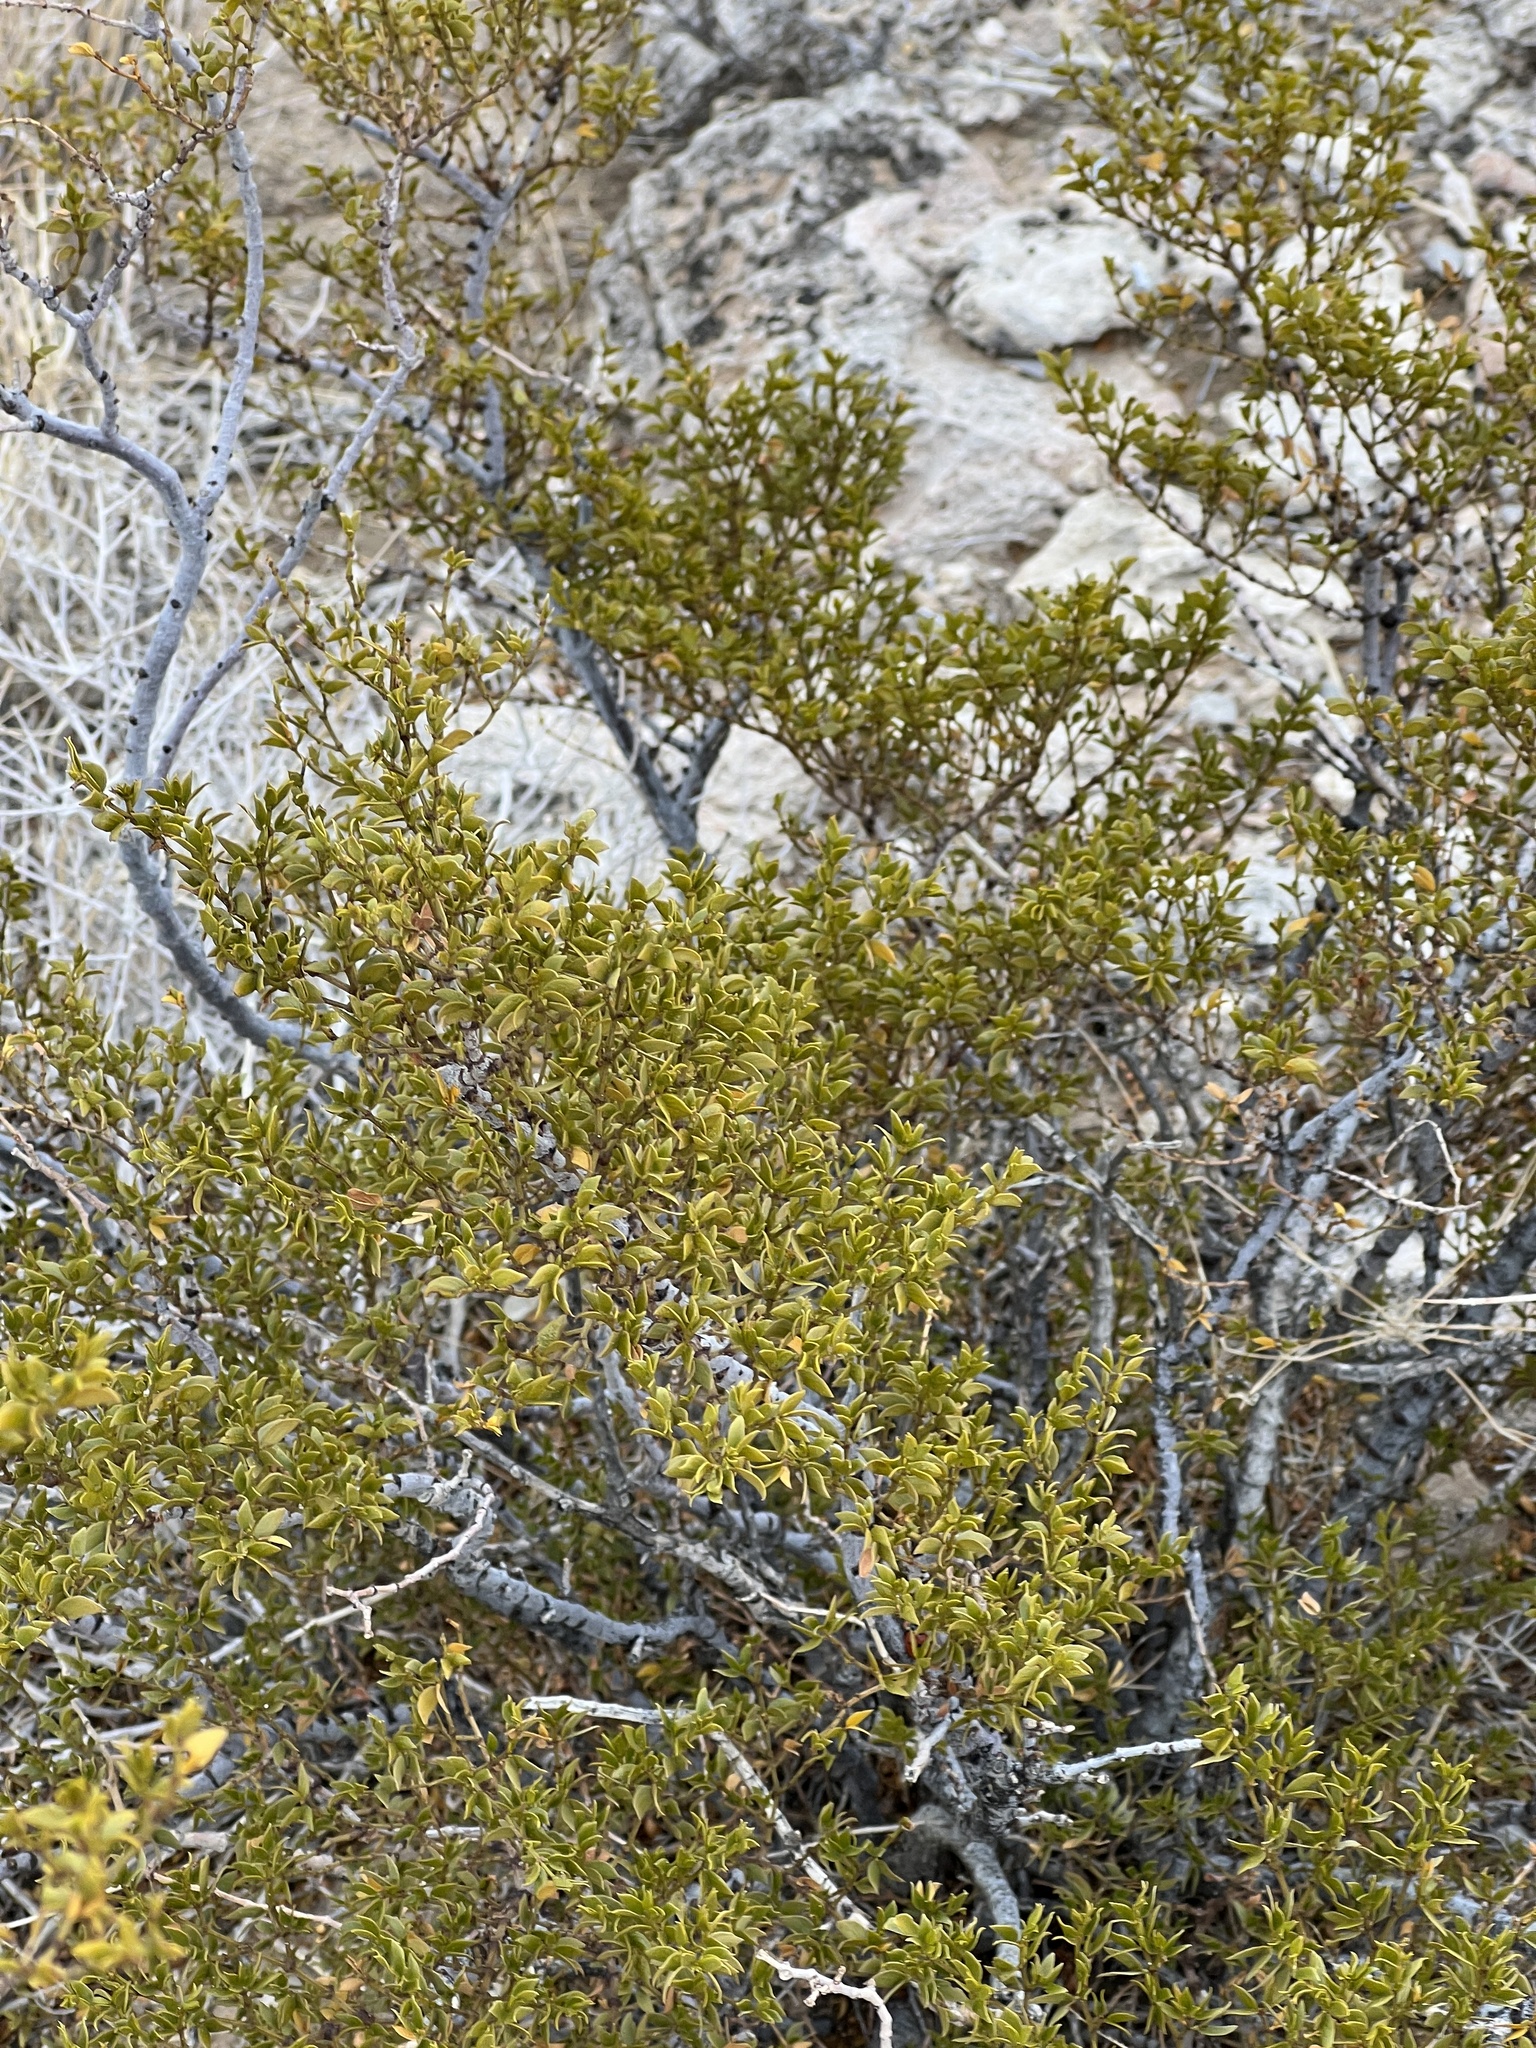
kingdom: Plantae
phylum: Tracheophyta
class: Magnoliopsida
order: Zygophyllales
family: Zygophyllaceae
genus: Larrea
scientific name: Larrea tridentata
